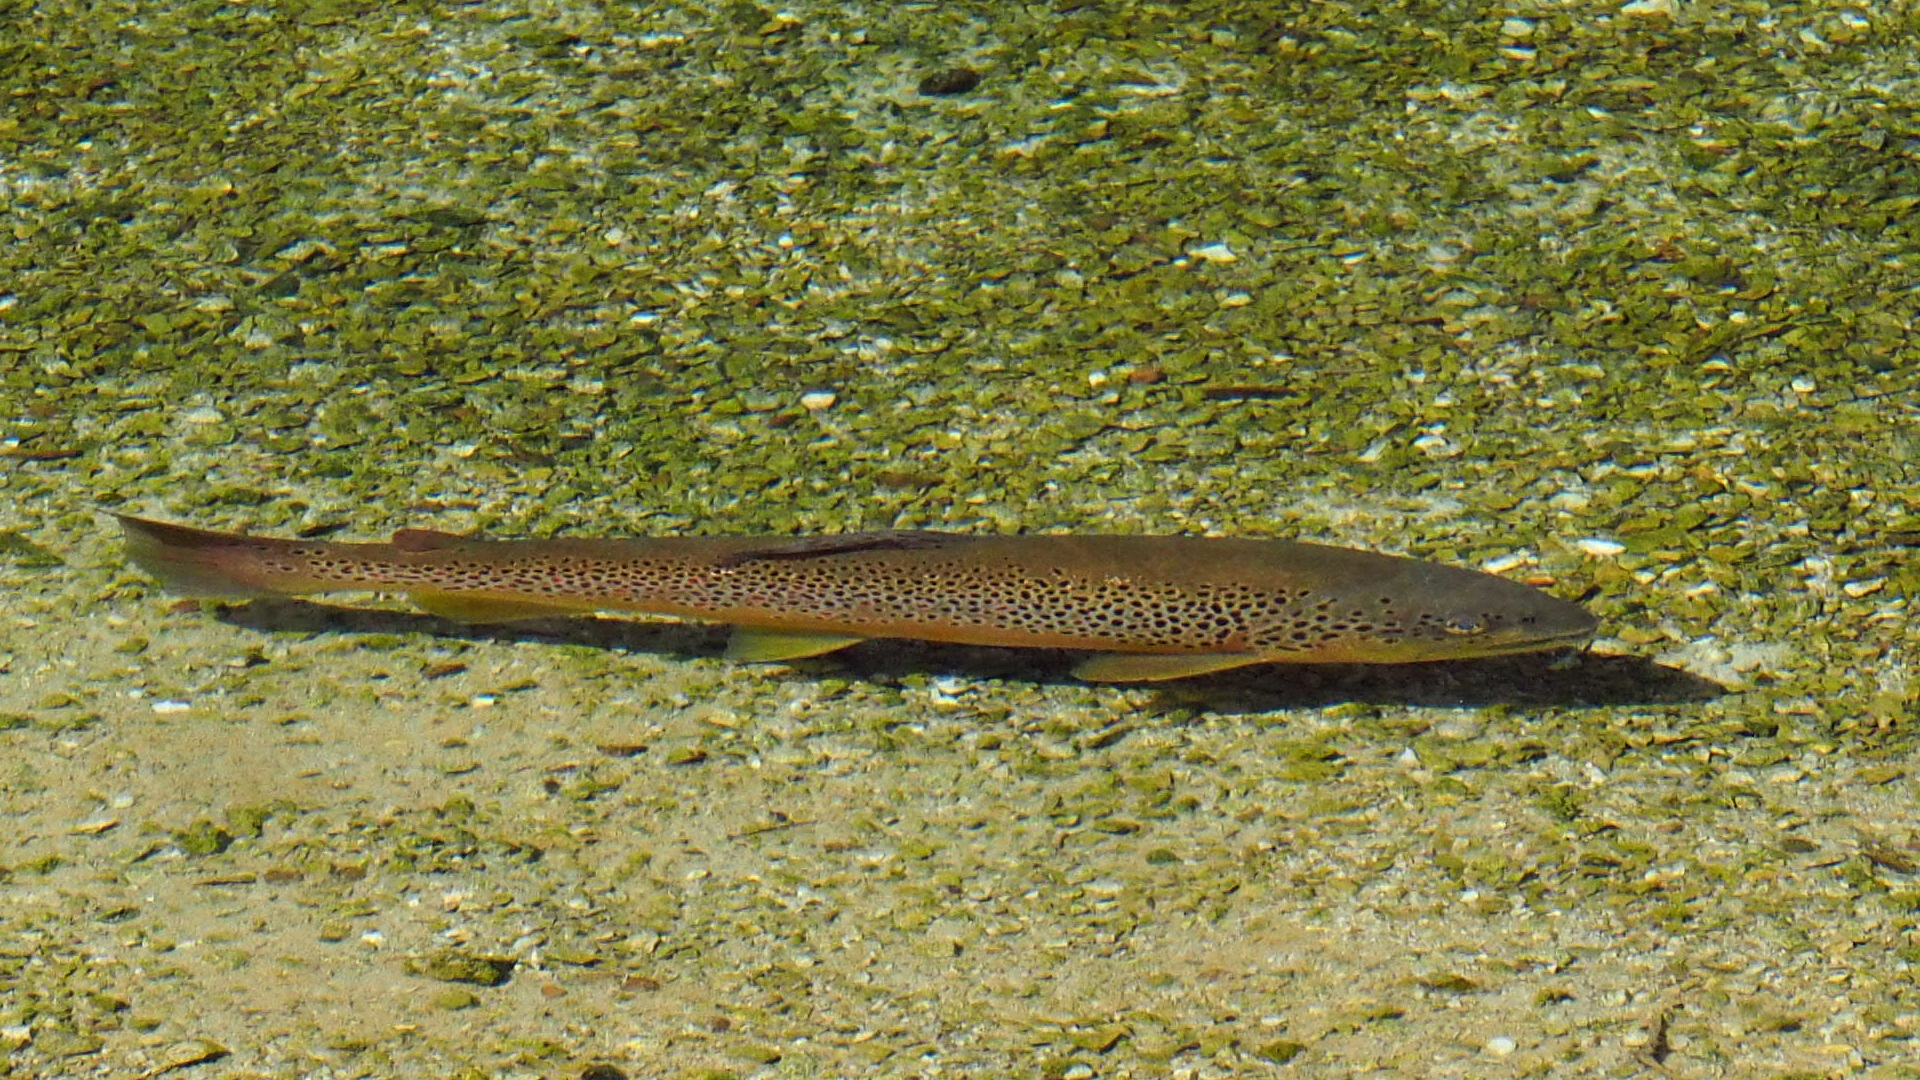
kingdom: Animalia
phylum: Chordata
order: Salmoniformes
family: Salmonidae
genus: Salmo
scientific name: Salmo trutta
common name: Brown trout
